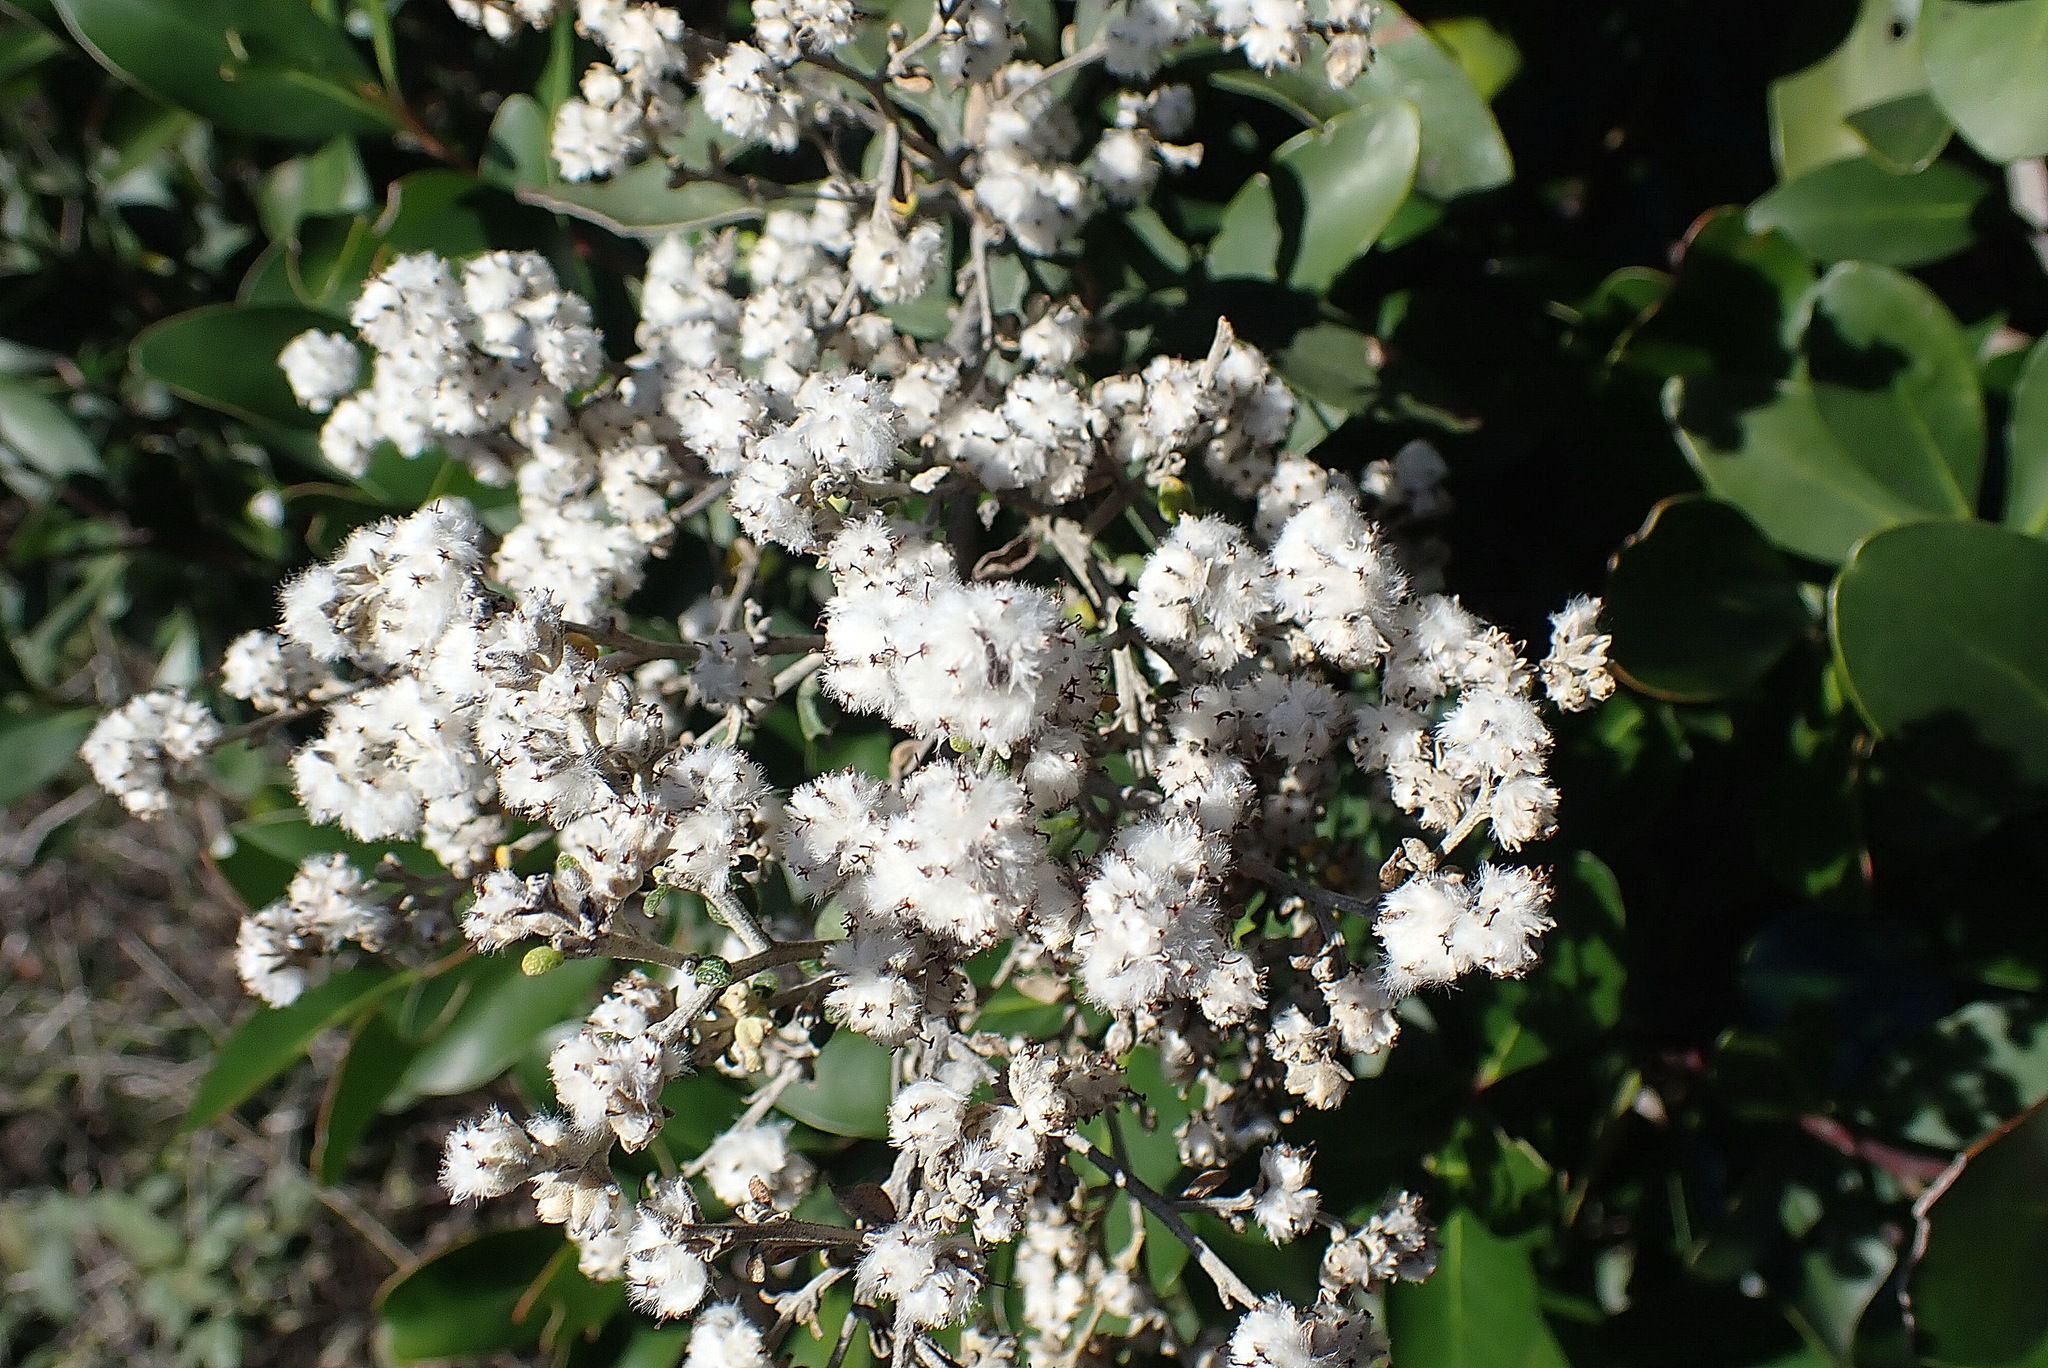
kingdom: Plantae
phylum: Tracheophyta
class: Magnoliopsida
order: Asterales
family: Asteraceae
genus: Tarchonanthus
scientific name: Tarchonanthus littoralis
